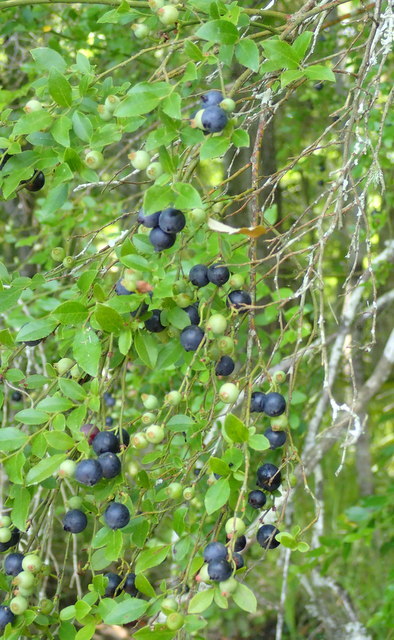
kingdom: Plantae
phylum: Tracheophyta
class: Magnoliopsida
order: Ericales
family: Ericaceae
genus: Vaccinium
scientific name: Vaccinium corymbosum
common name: Blueberry
